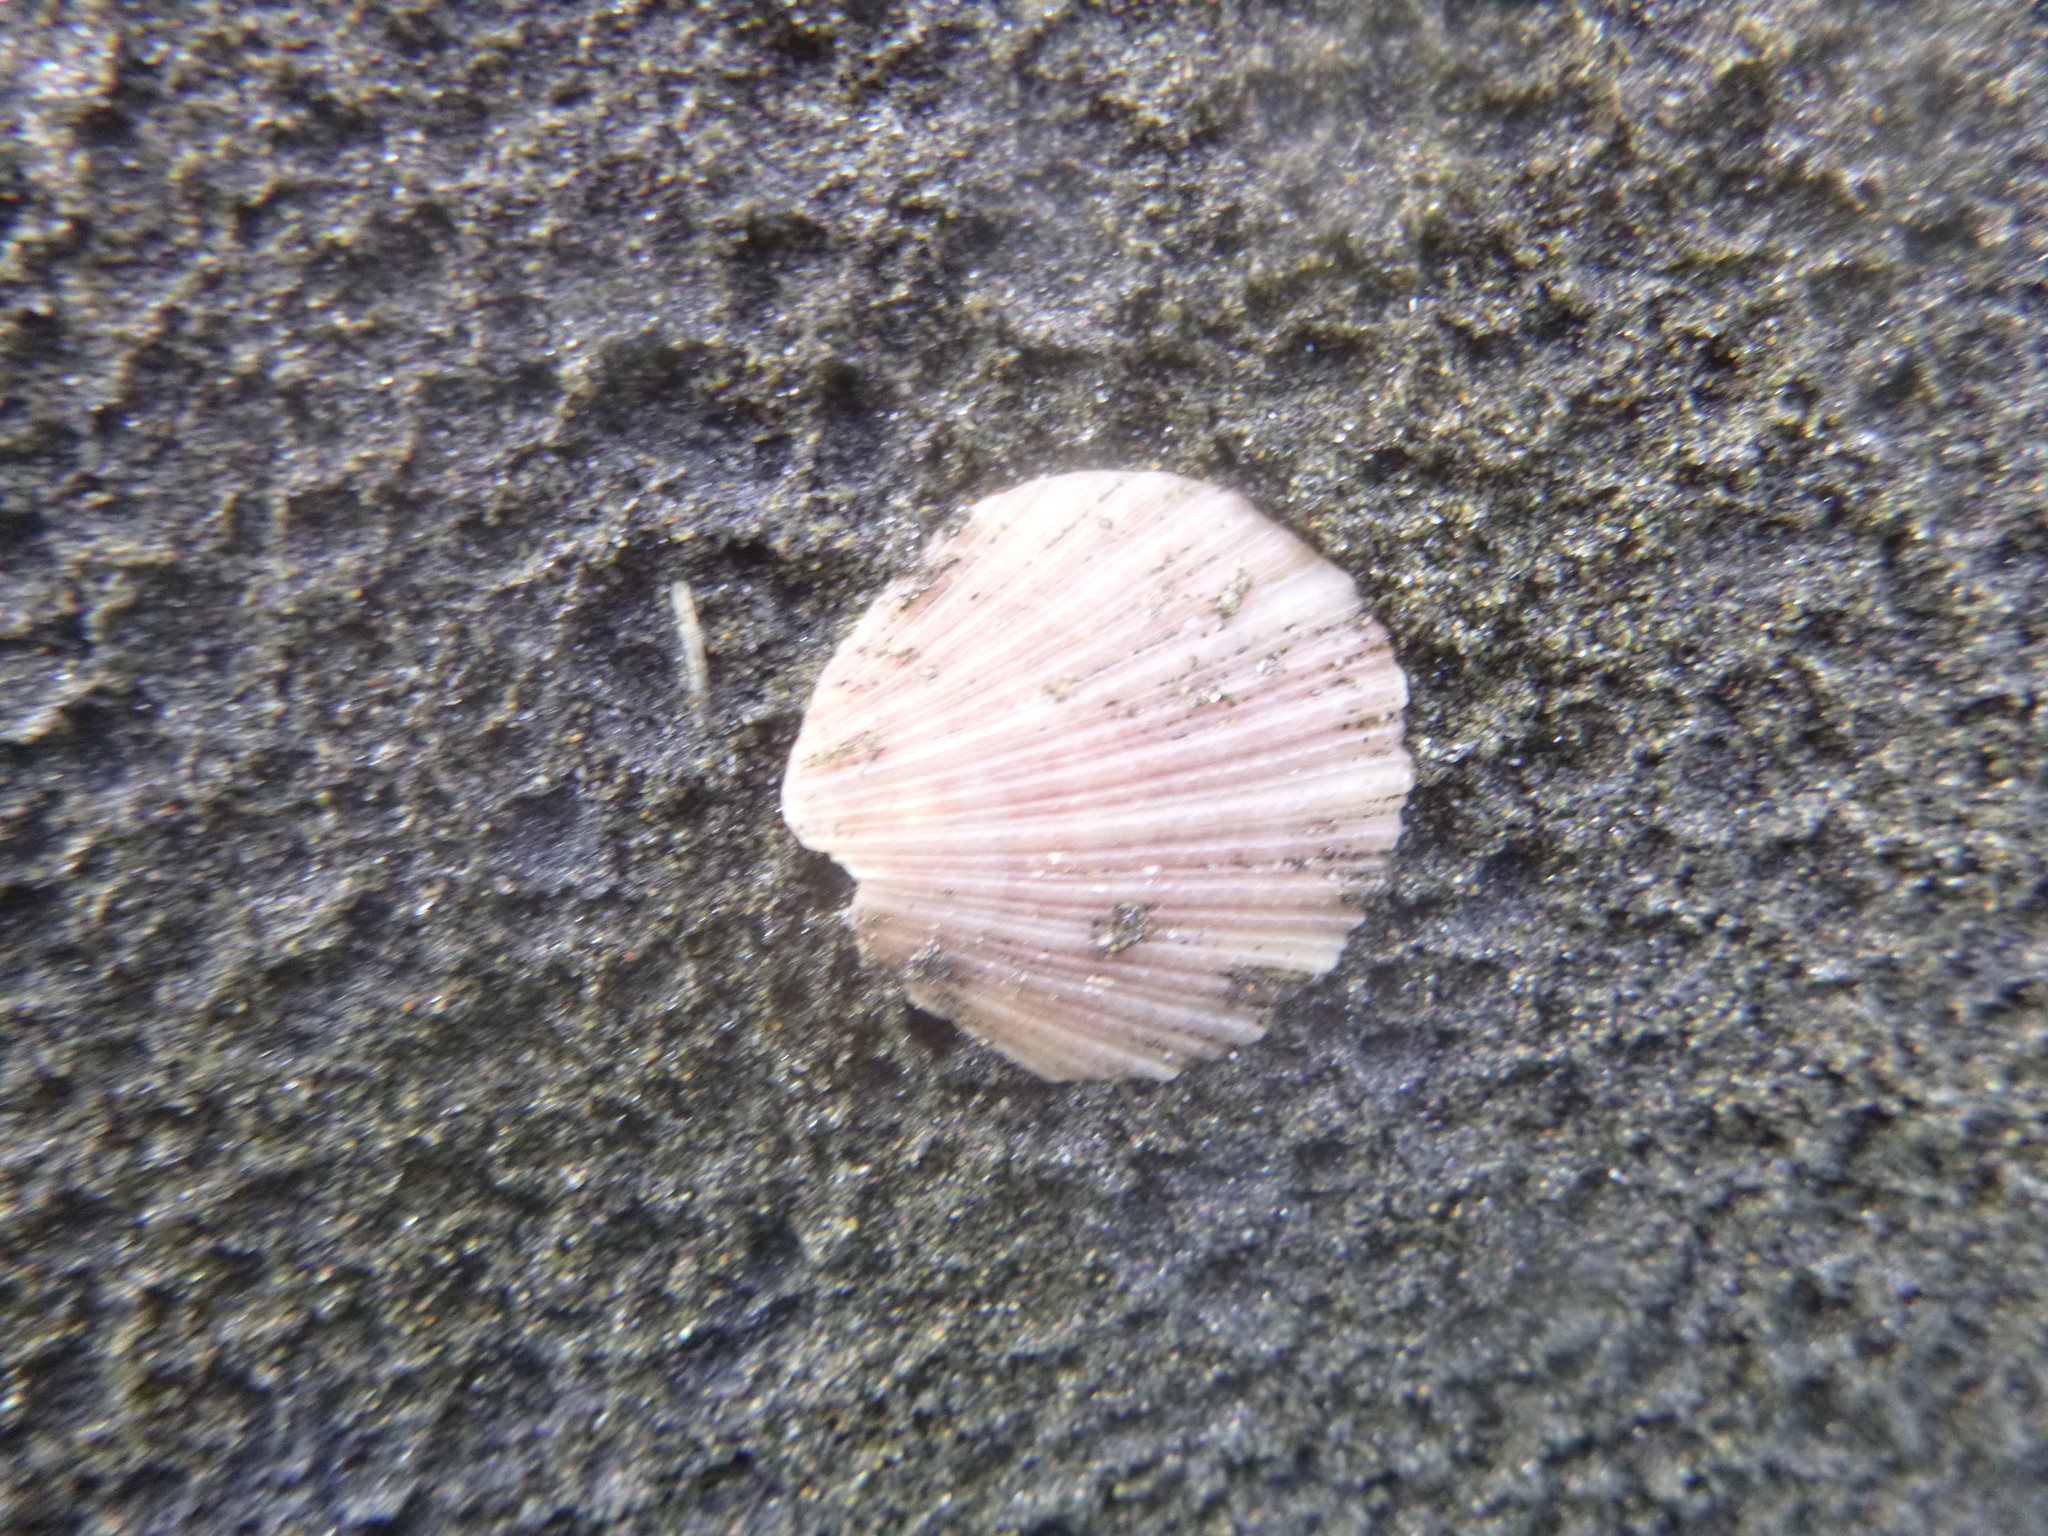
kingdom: Animalia
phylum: Mollusca
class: Bivalvia
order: Pectinida
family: Pectinidae
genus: Talochlamys
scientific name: Talochlamys zelandiae
